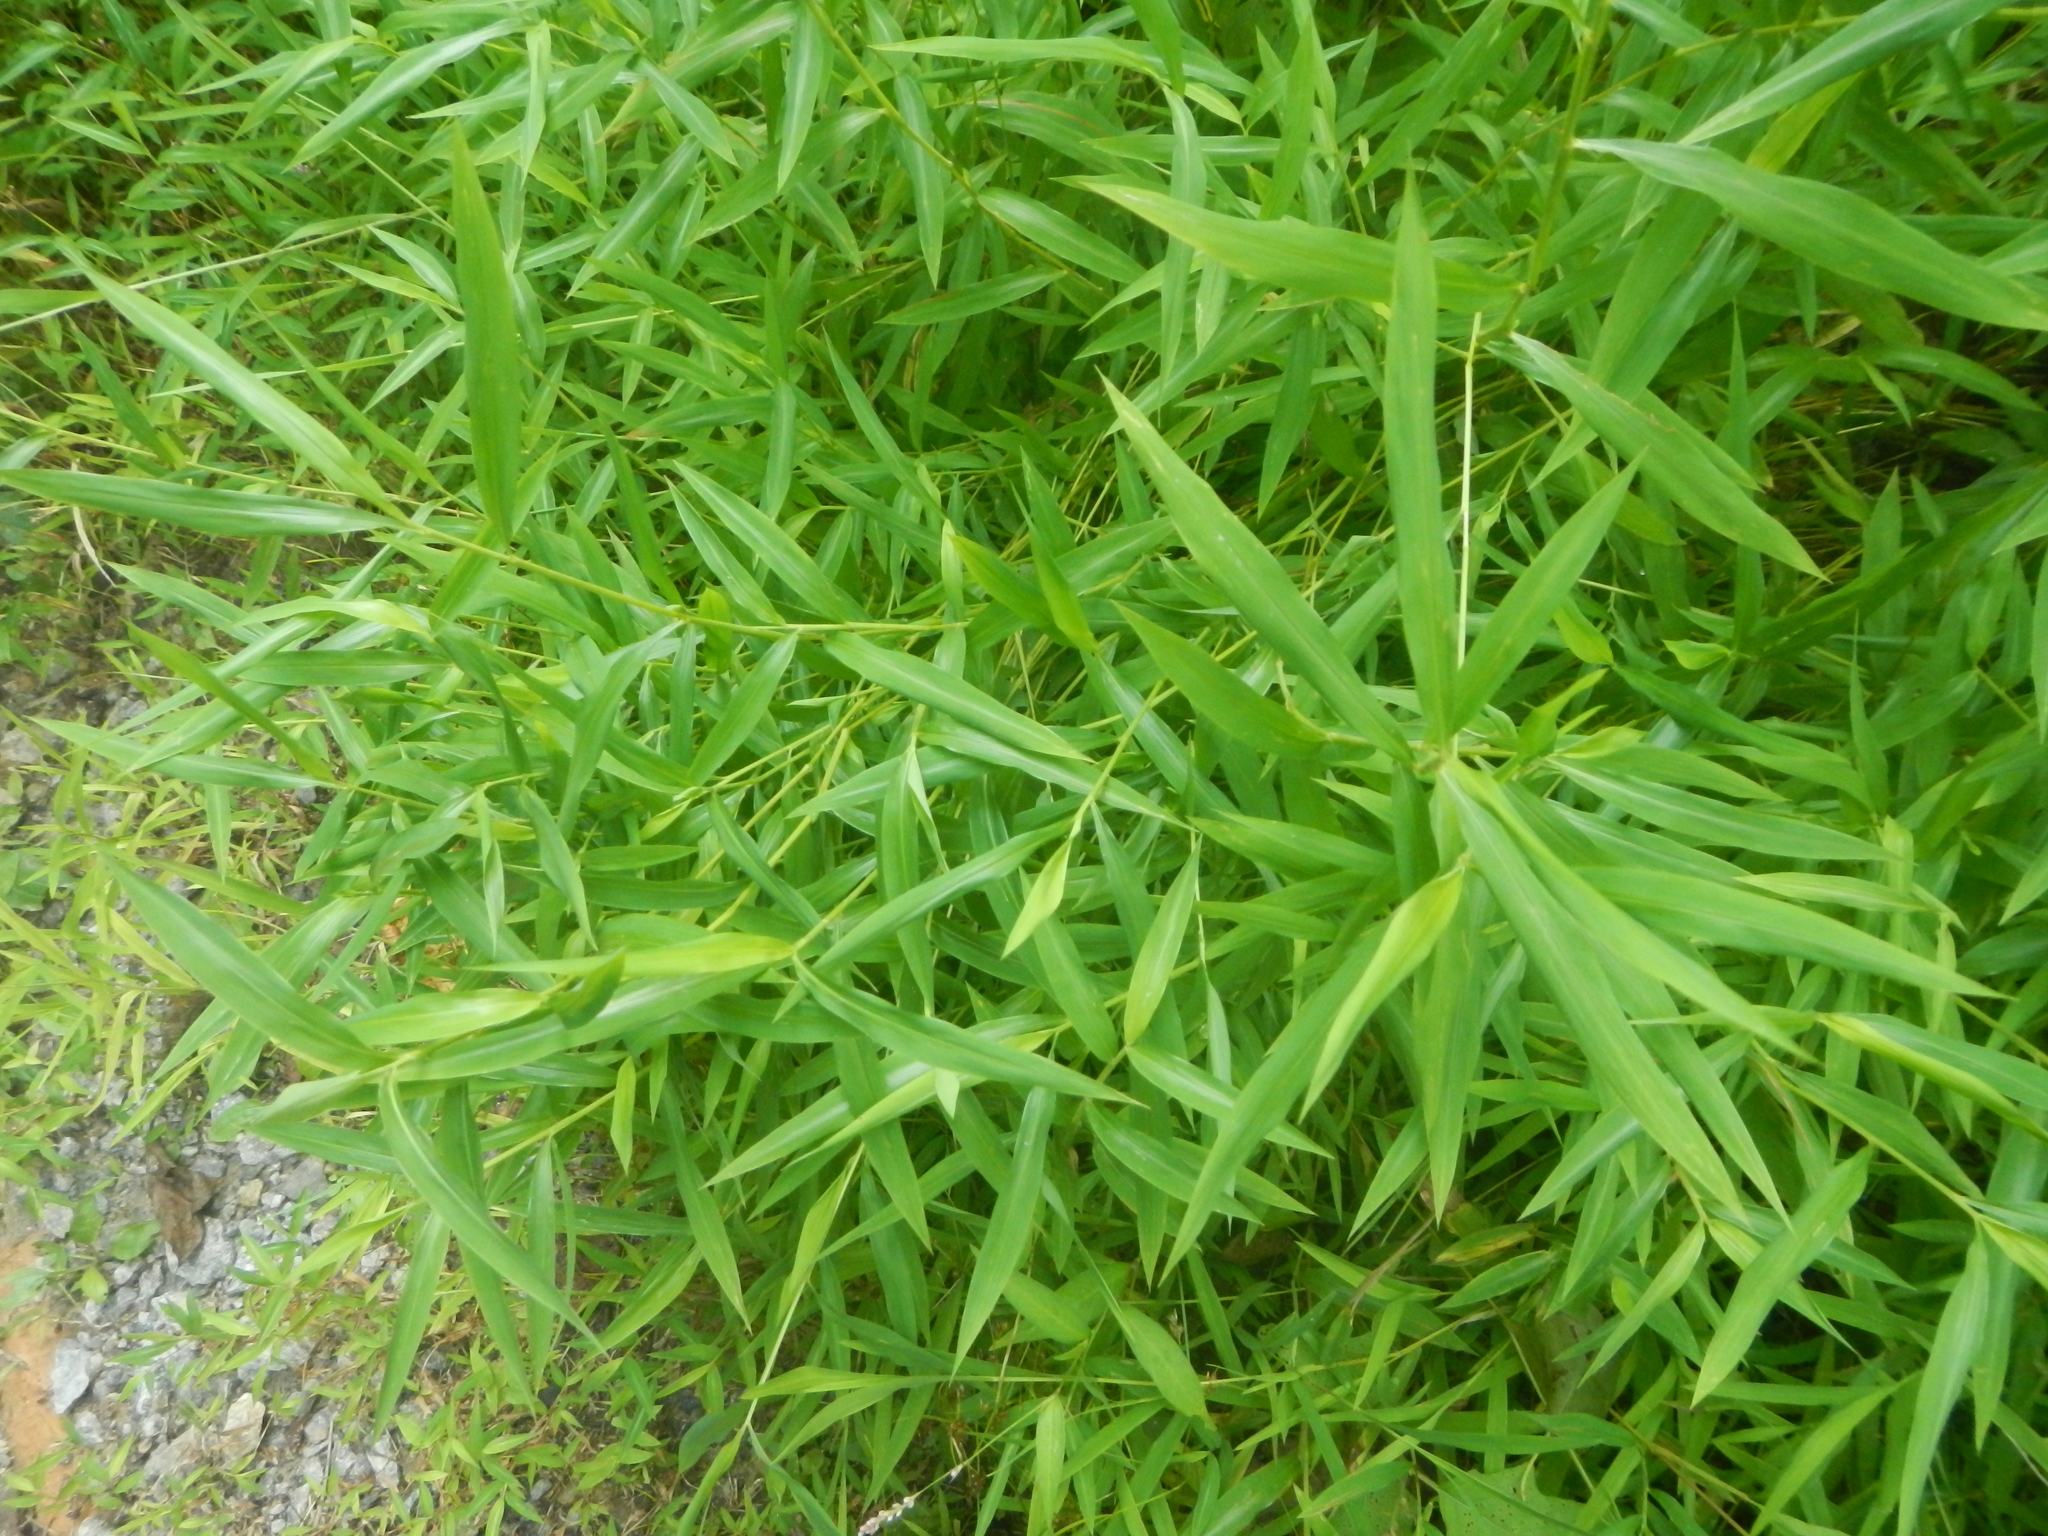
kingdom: Plantae
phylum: Tracheophyta
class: Liliopsida
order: Poales
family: Poaceae
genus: Microstegium
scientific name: Microstegium vimineum
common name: Japanese stiltgrass
